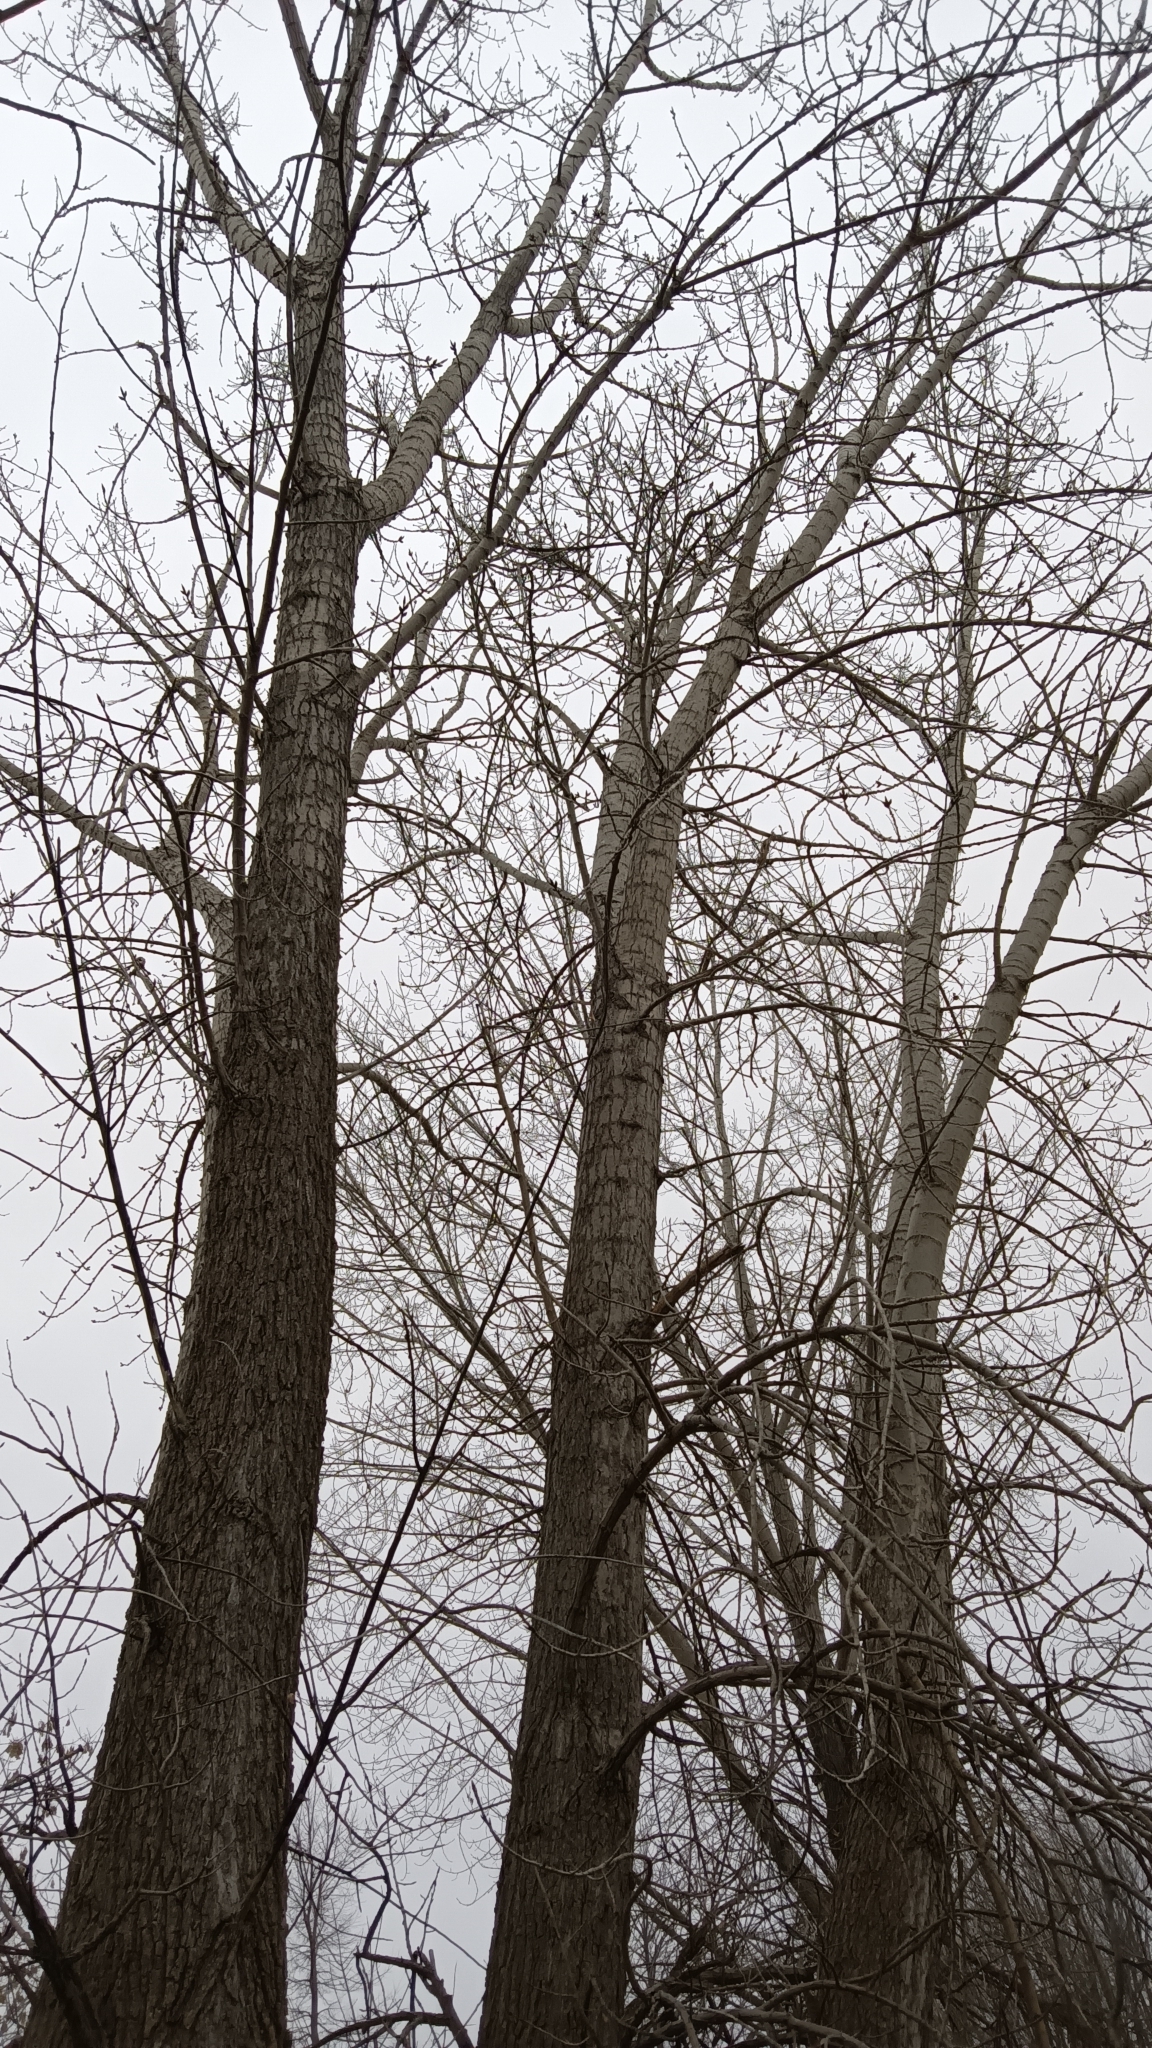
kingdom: Plantae
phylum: Tracheophyta
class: Magnoliopsida
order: Malpighiales
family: Salicaceae
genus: Populus
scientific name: Populus deltoides
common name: Eastern cottonwood
